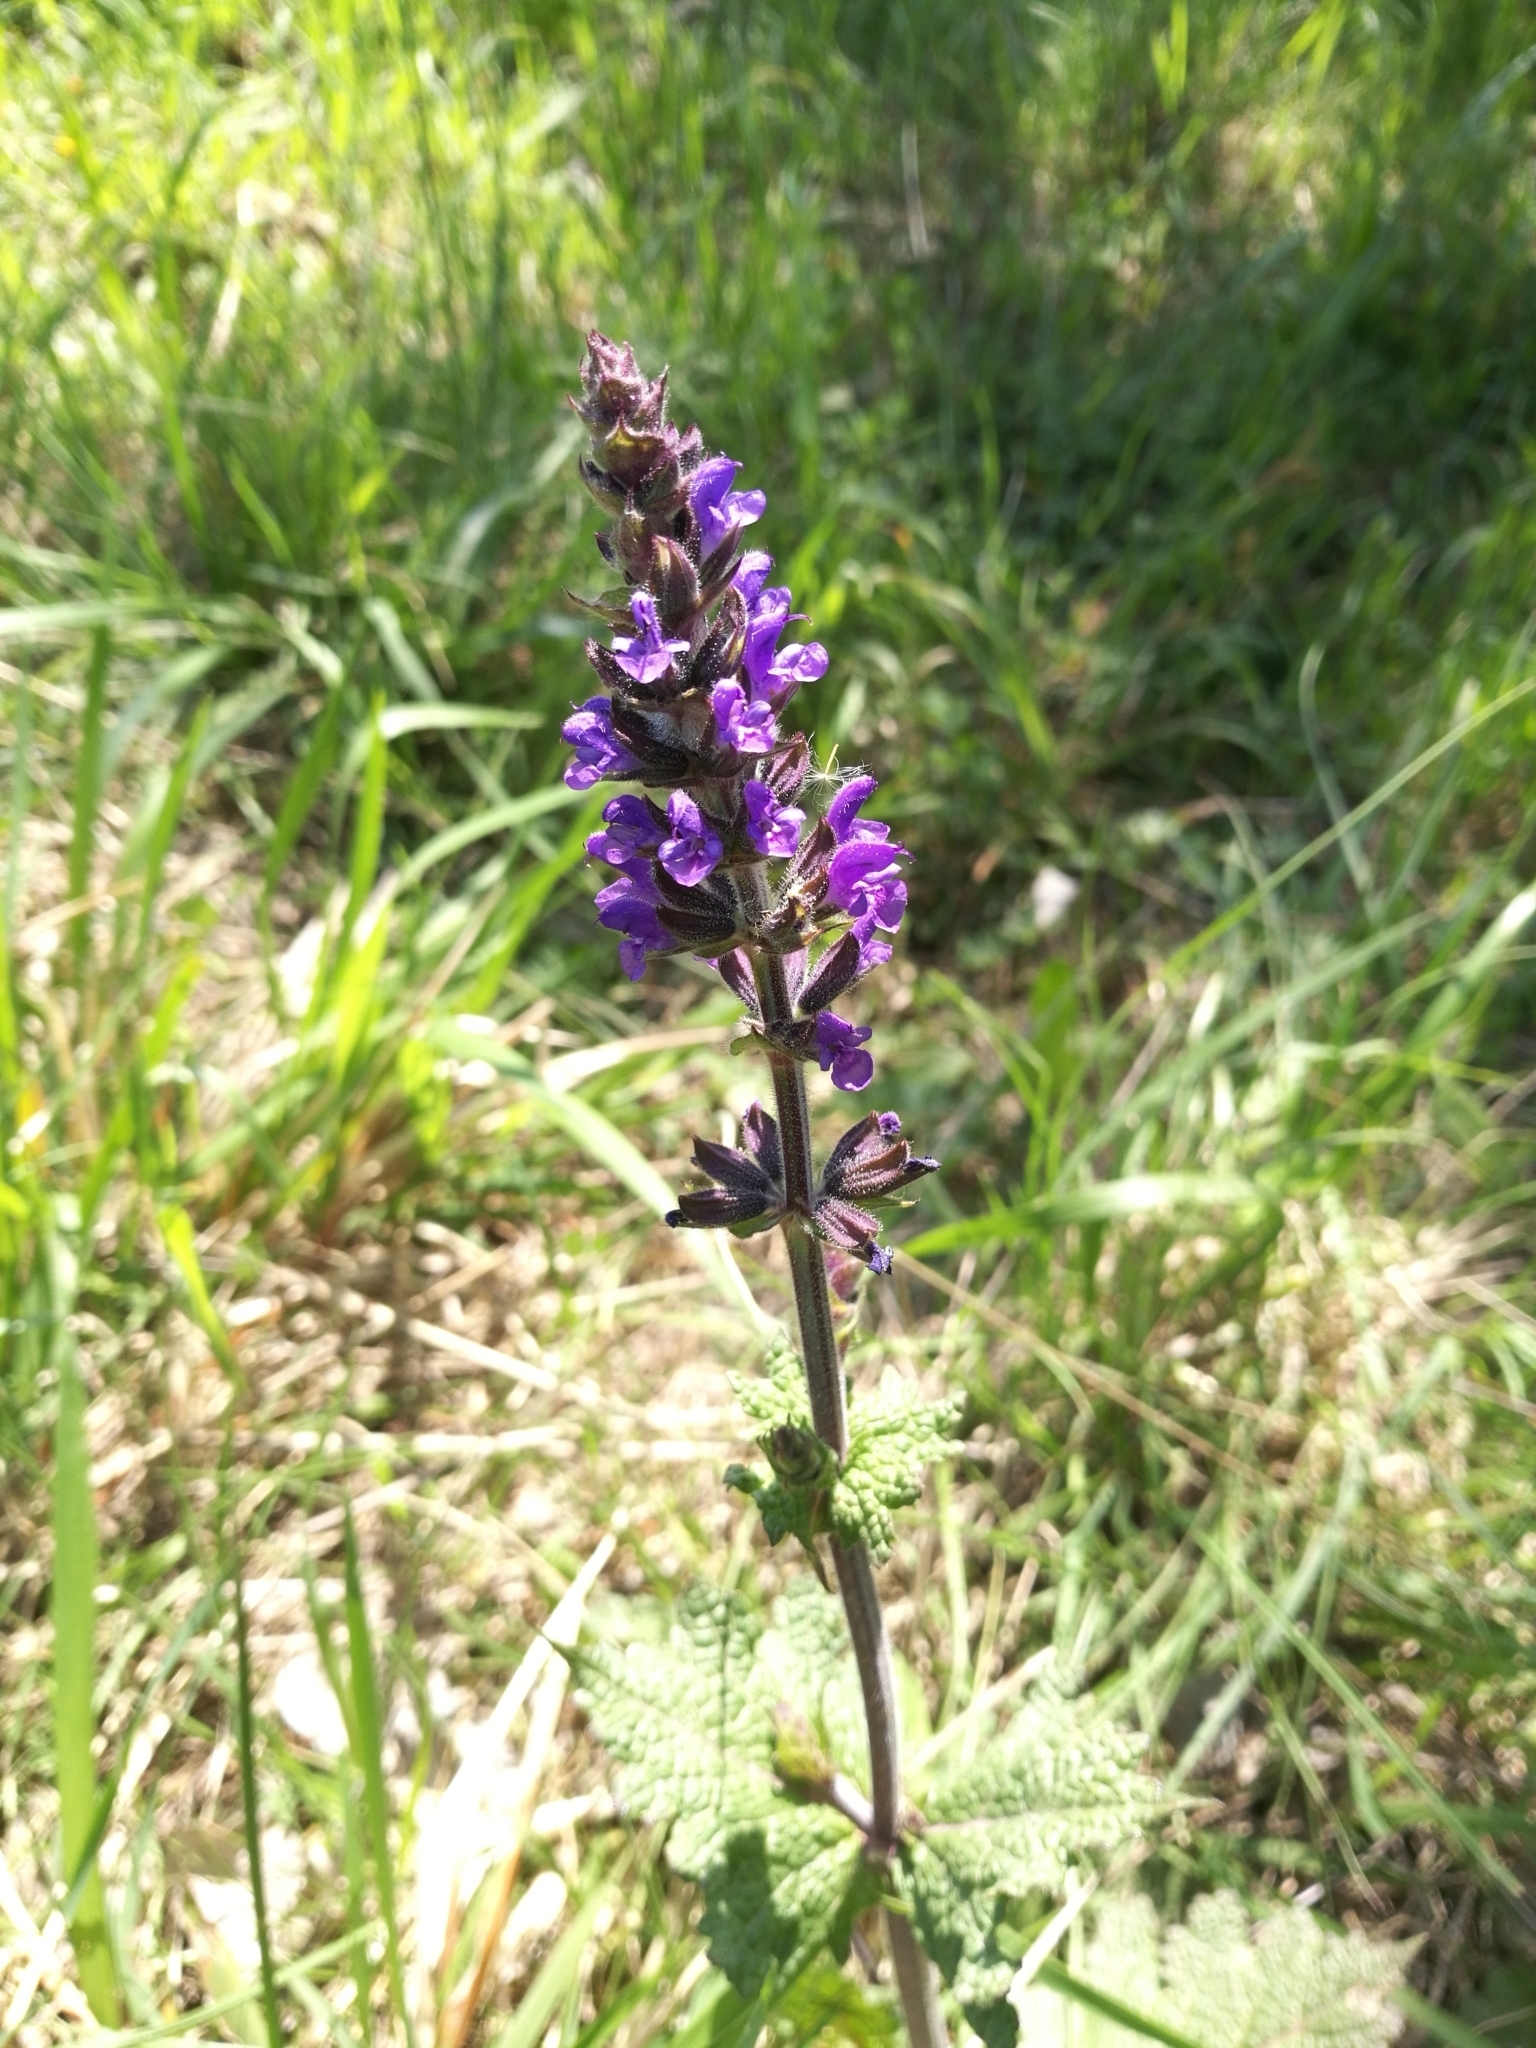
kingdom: Plantae
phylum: Tracheophyta
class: Magnoliopsida
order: Lamiales
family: Lamiaceae
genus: Salvia
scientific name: Salvia verbenaca
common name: Wild clary
